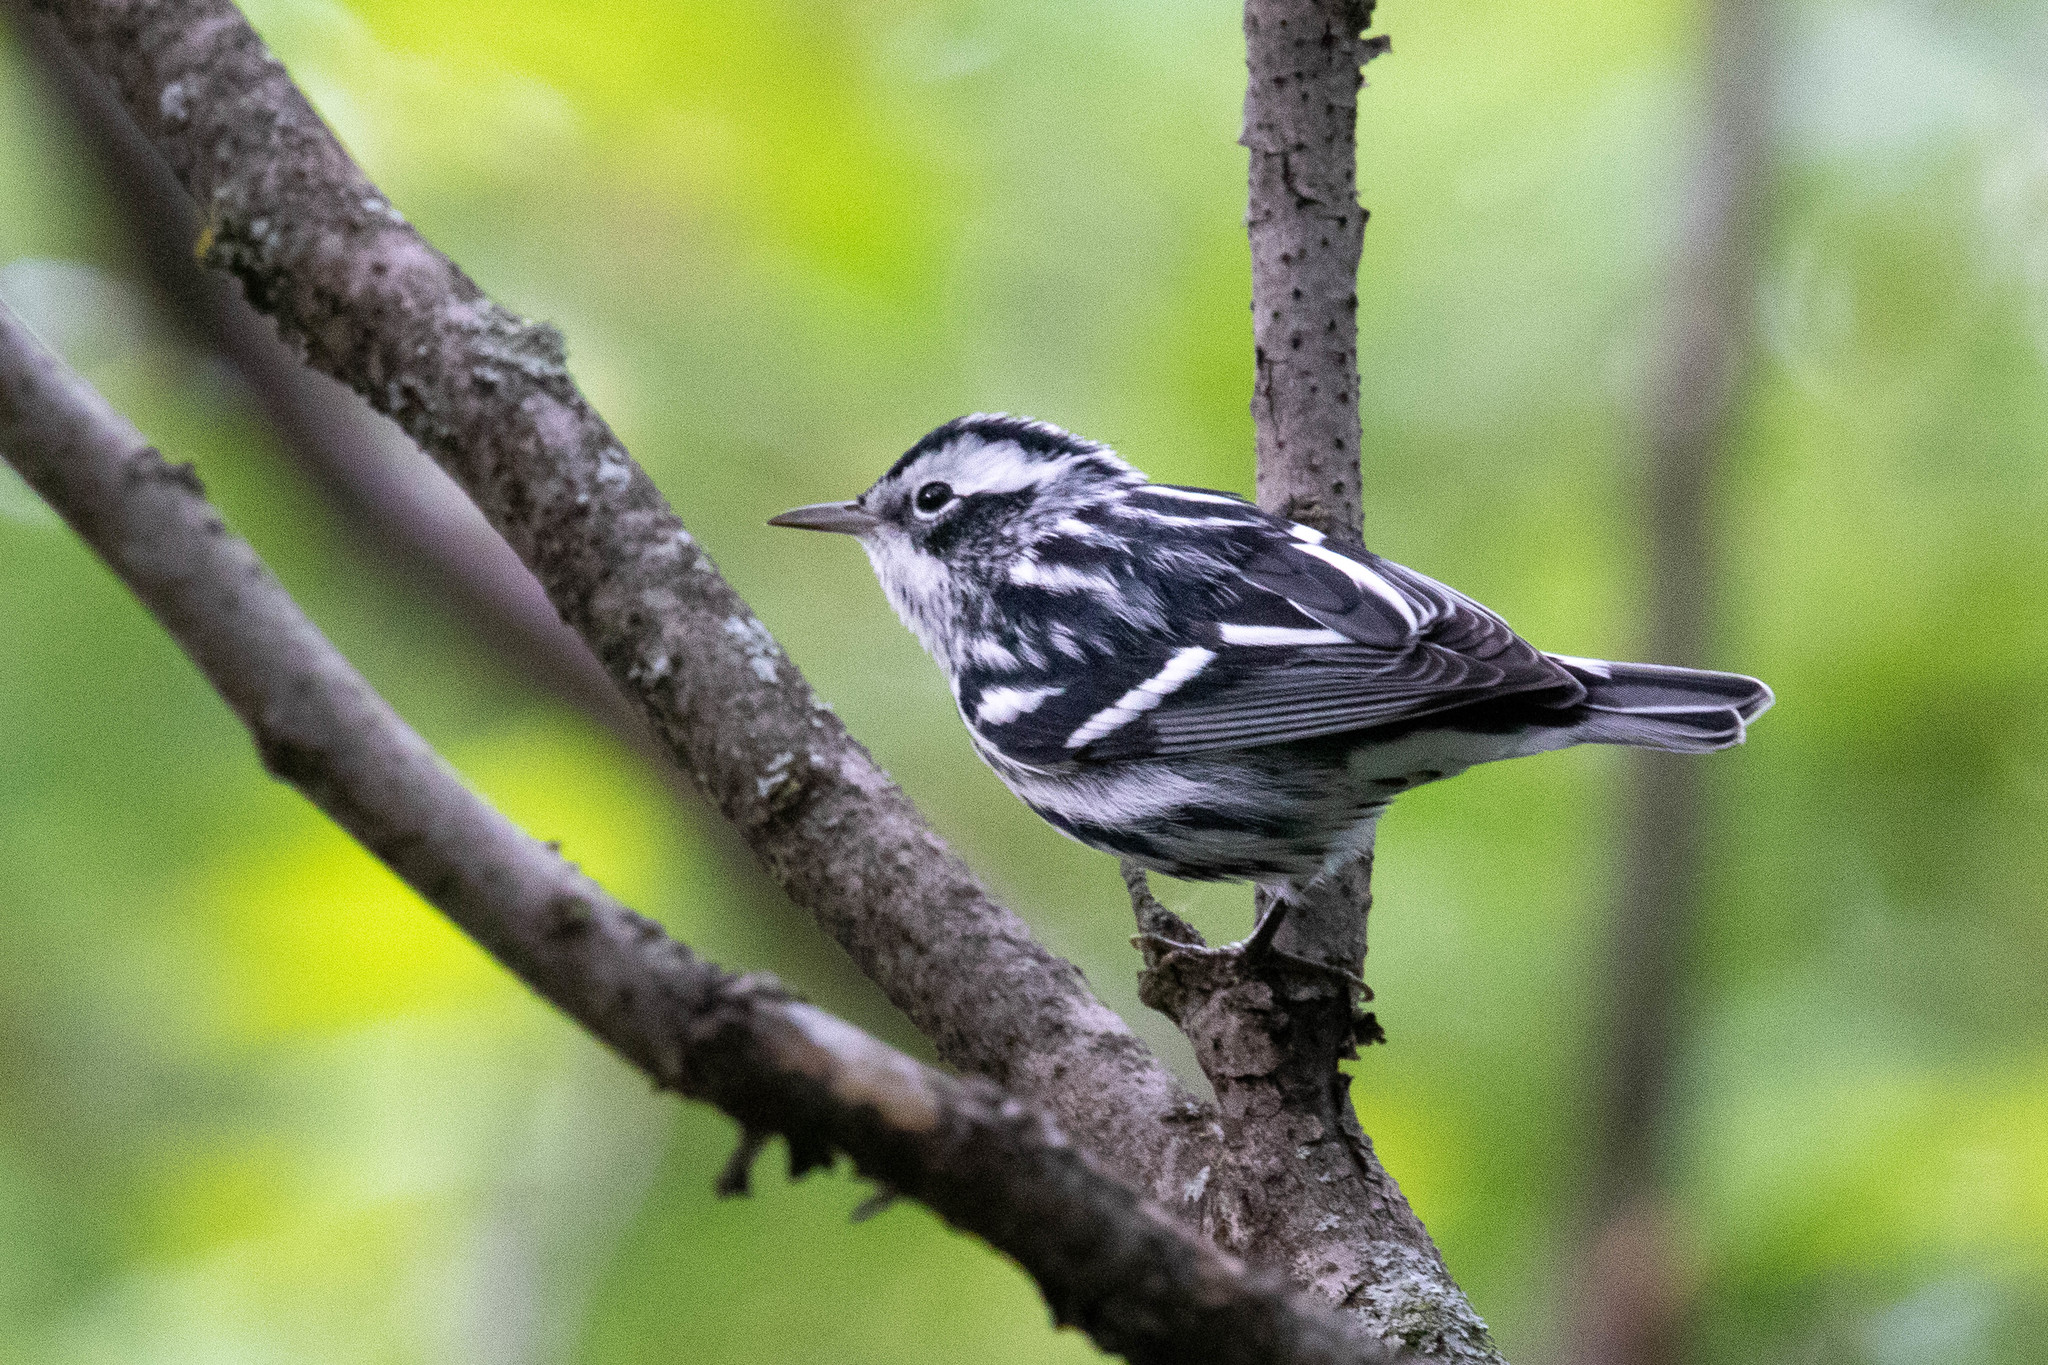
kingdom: Animalia
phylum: Chordata
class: Aves
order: Passeriformes
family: Parulidae
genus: Mniotilta
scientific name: Mniotilta varia
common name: Black-and-white warbler
